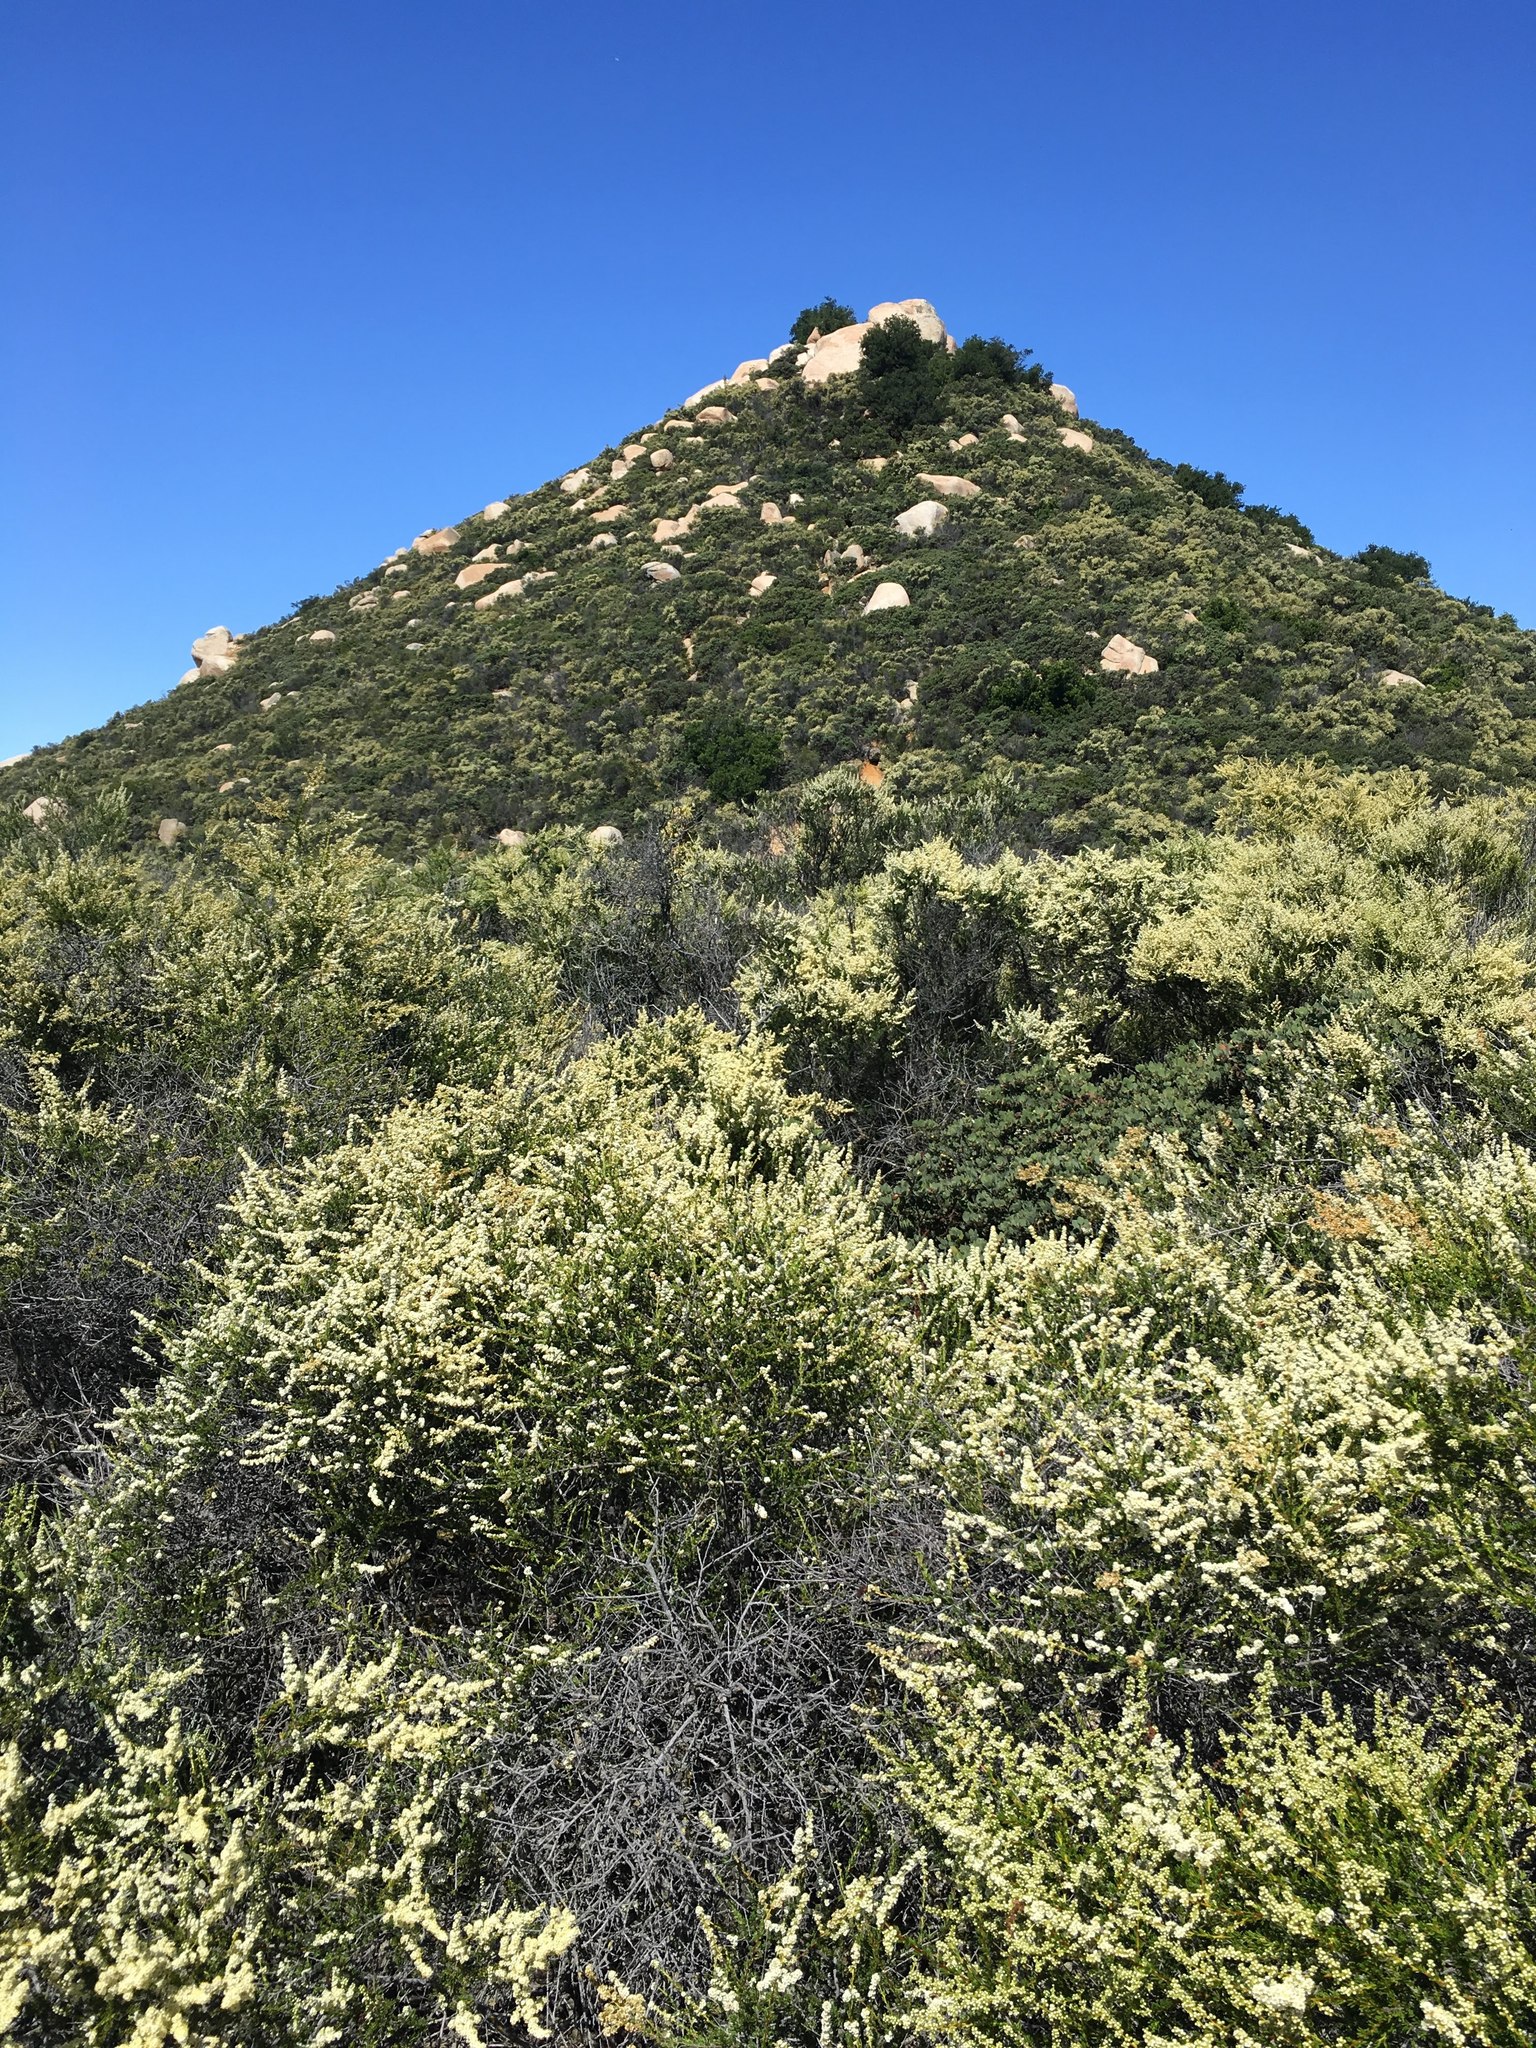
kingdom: Plantae
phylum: Tracheophyta
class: Magnoliopsida
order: Rosales
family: Rosaceae
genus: Adenostoma
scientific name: Adenostoma fasciculatum
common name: Chamise
